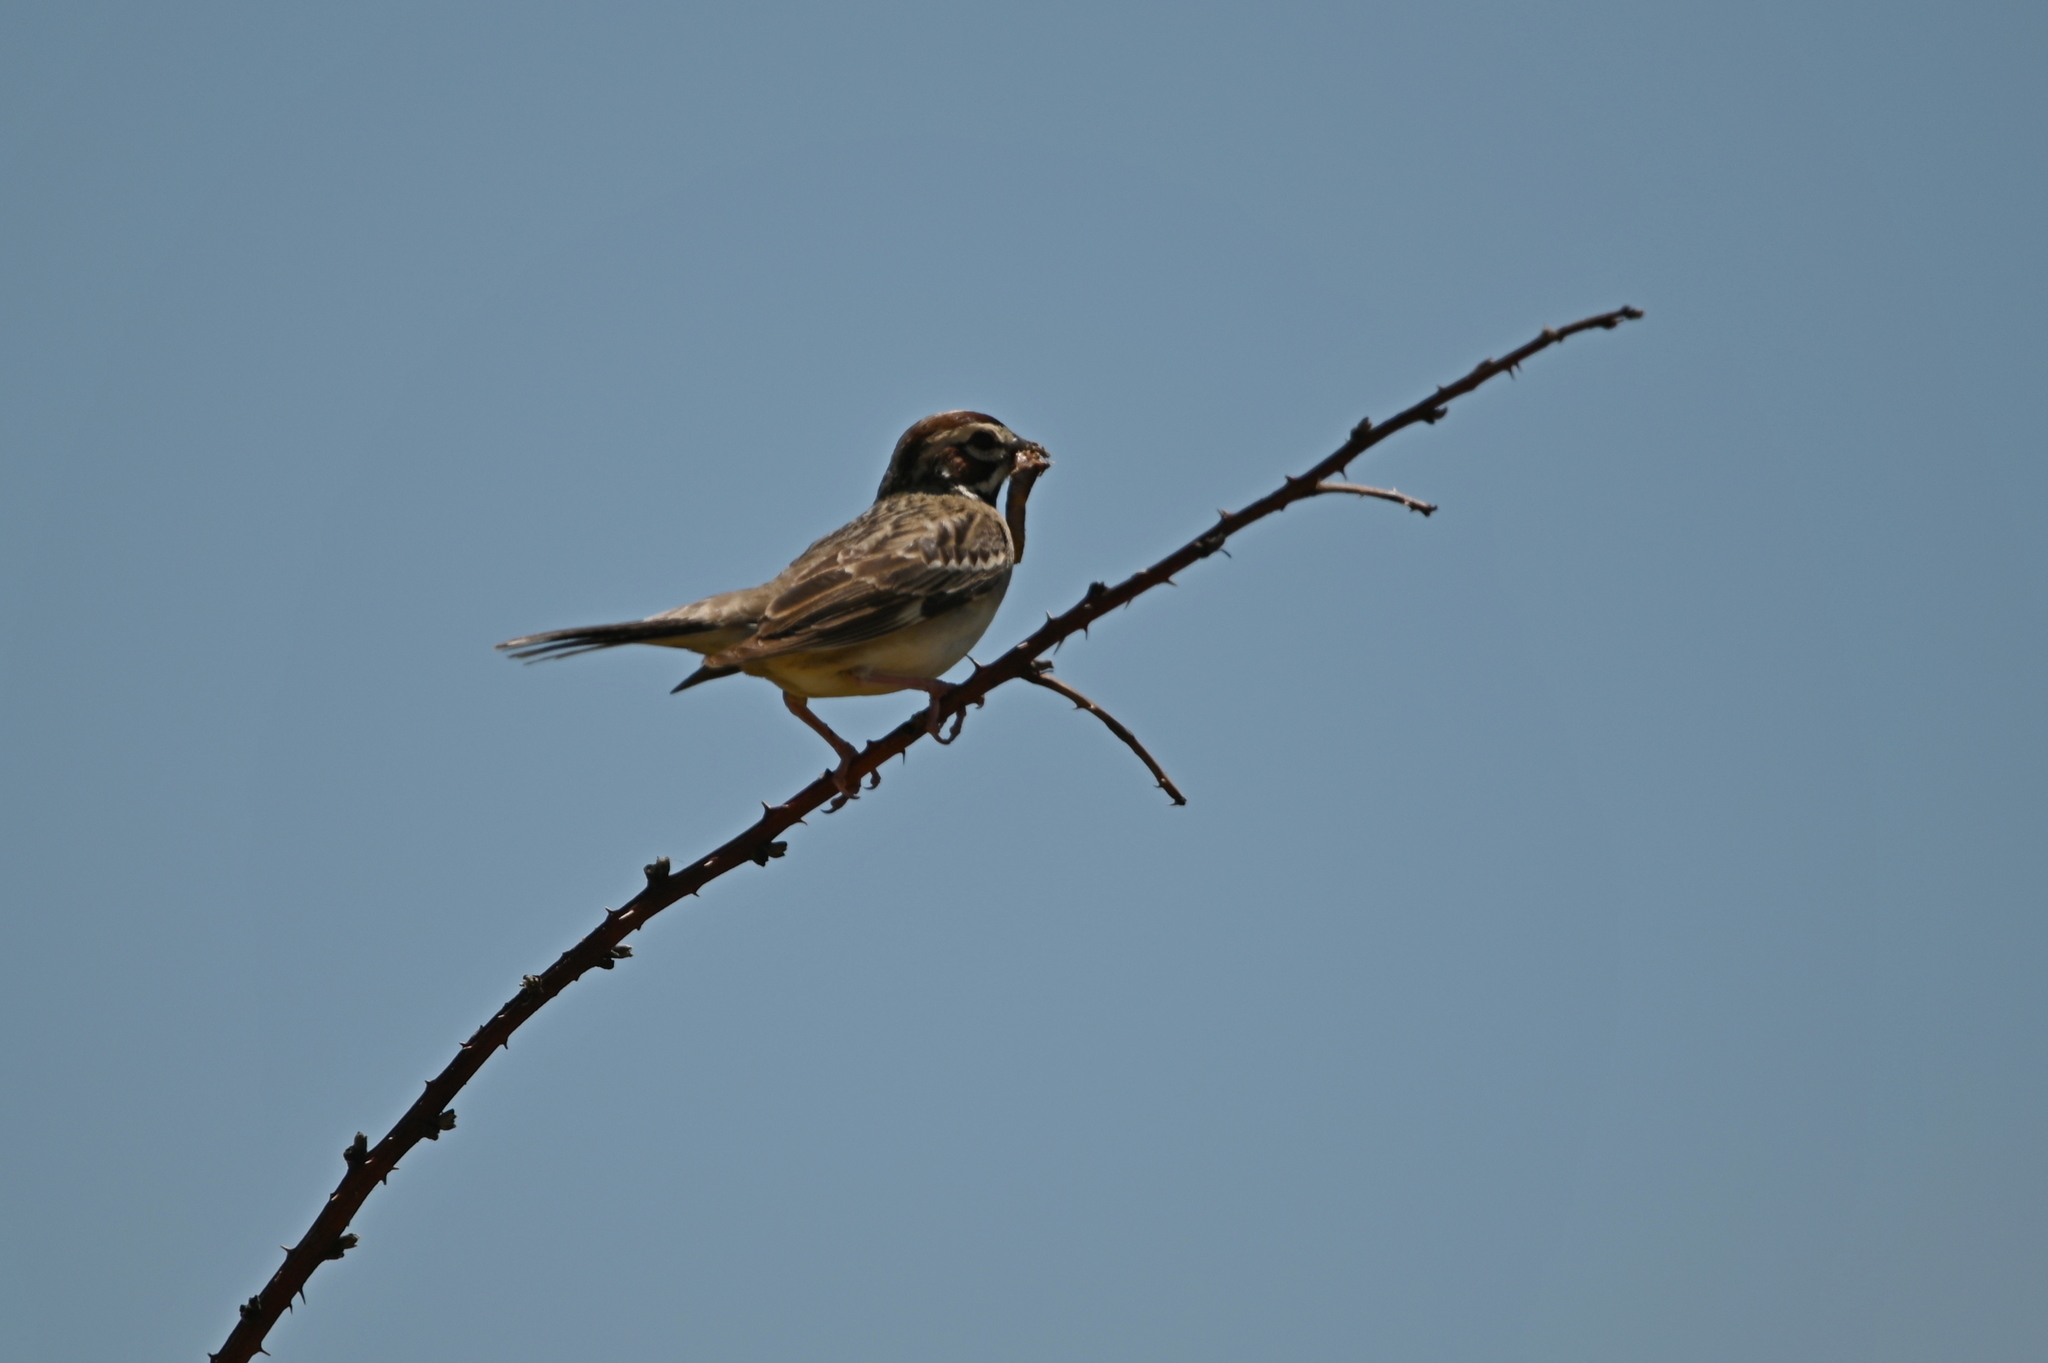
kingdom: Animalia
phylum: Chordata
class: Aves
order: Passeriformes
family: Passerellidae
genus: Chondestes
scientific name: Chondestes grammacus
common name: Lark sparrow
